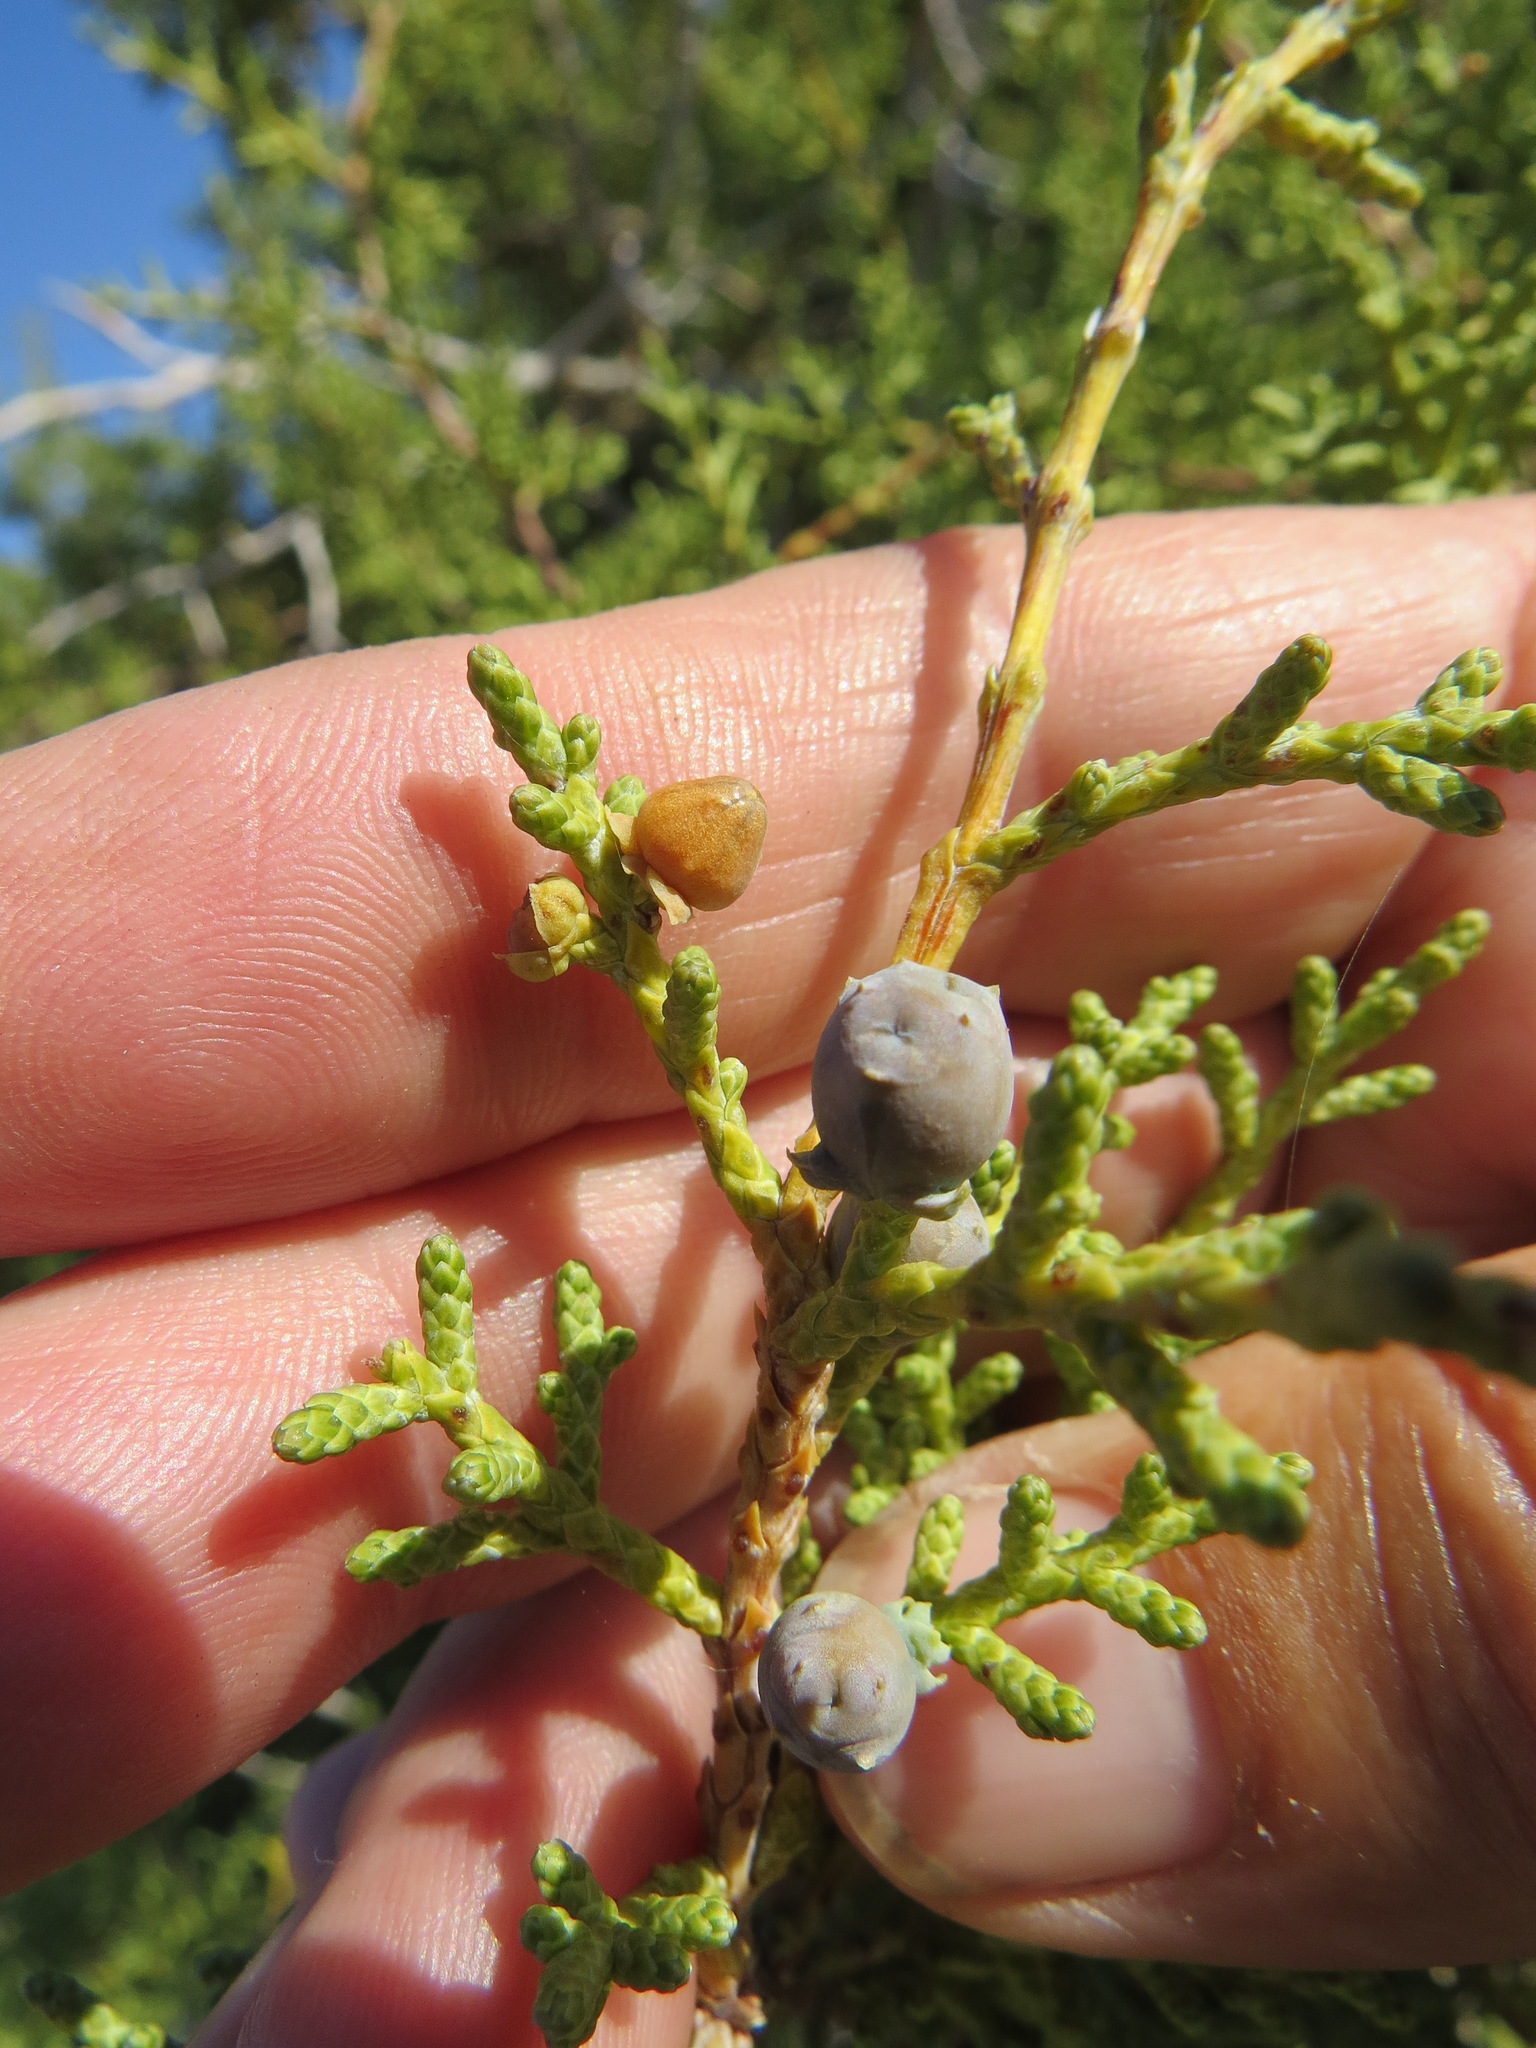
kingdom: Animalia
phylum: Arthropoda
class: Insecta
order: Diptera
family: Cecidomyiidae
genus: Walshomyia
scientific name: Walshomyia juniperina
